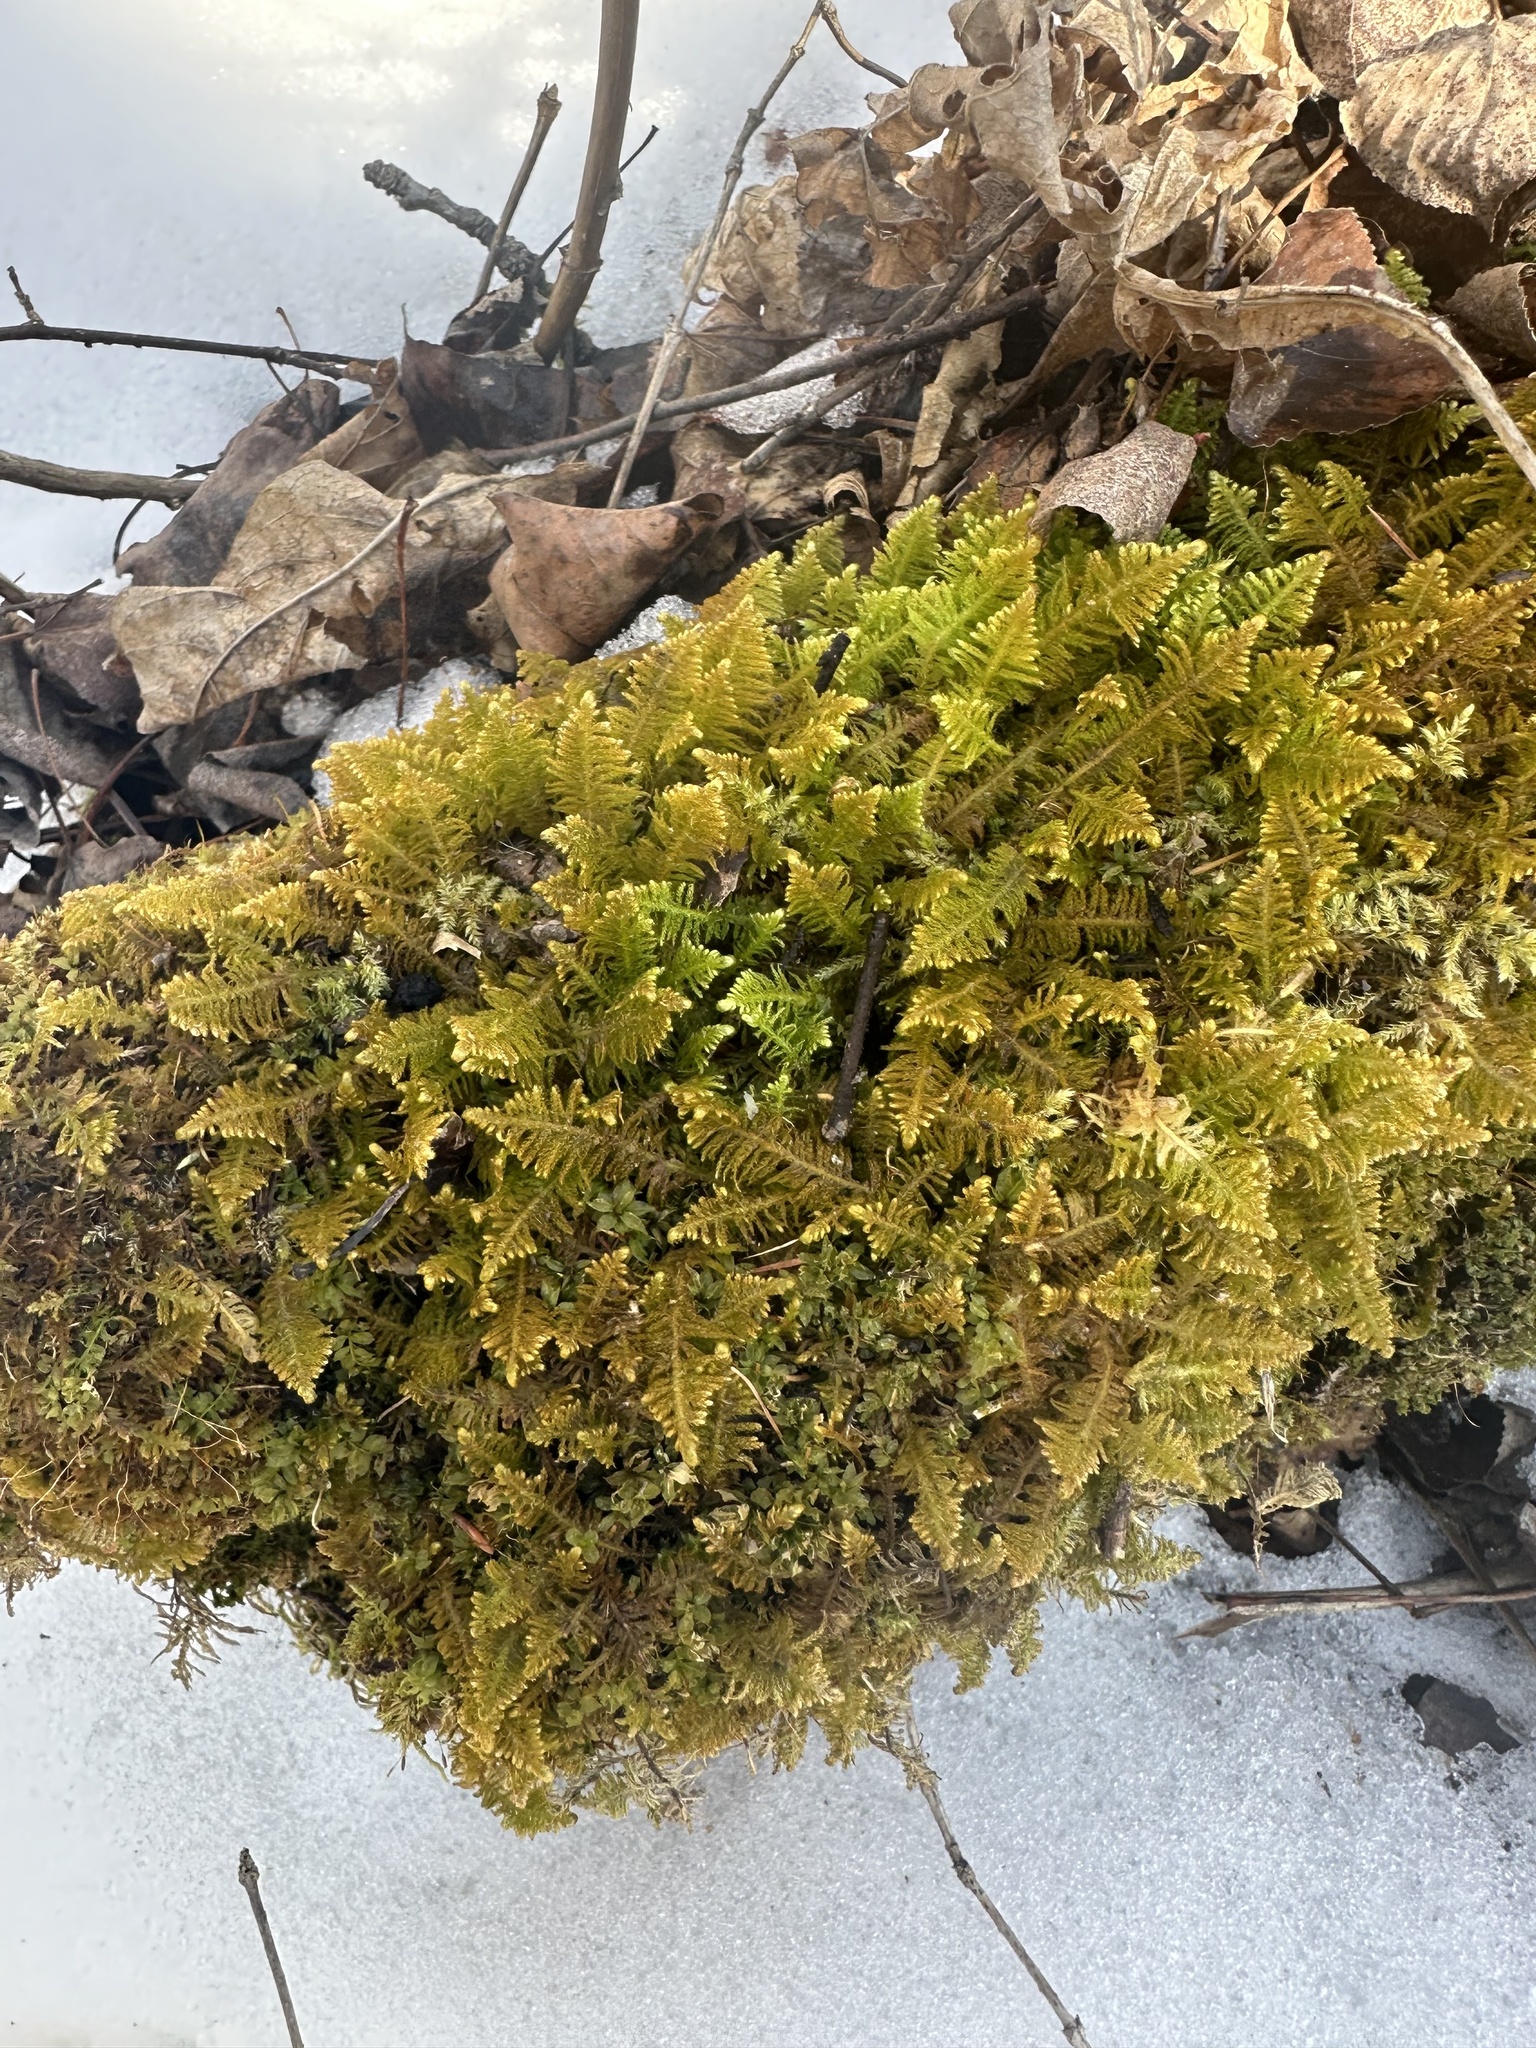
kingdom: Plantae
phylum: Bryophyta
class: Bryopsida
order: Hypnales
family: Pylaisiaceae
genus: Ptilium
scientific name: Ptilium crista-castrensis
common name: Knight's plume moss
